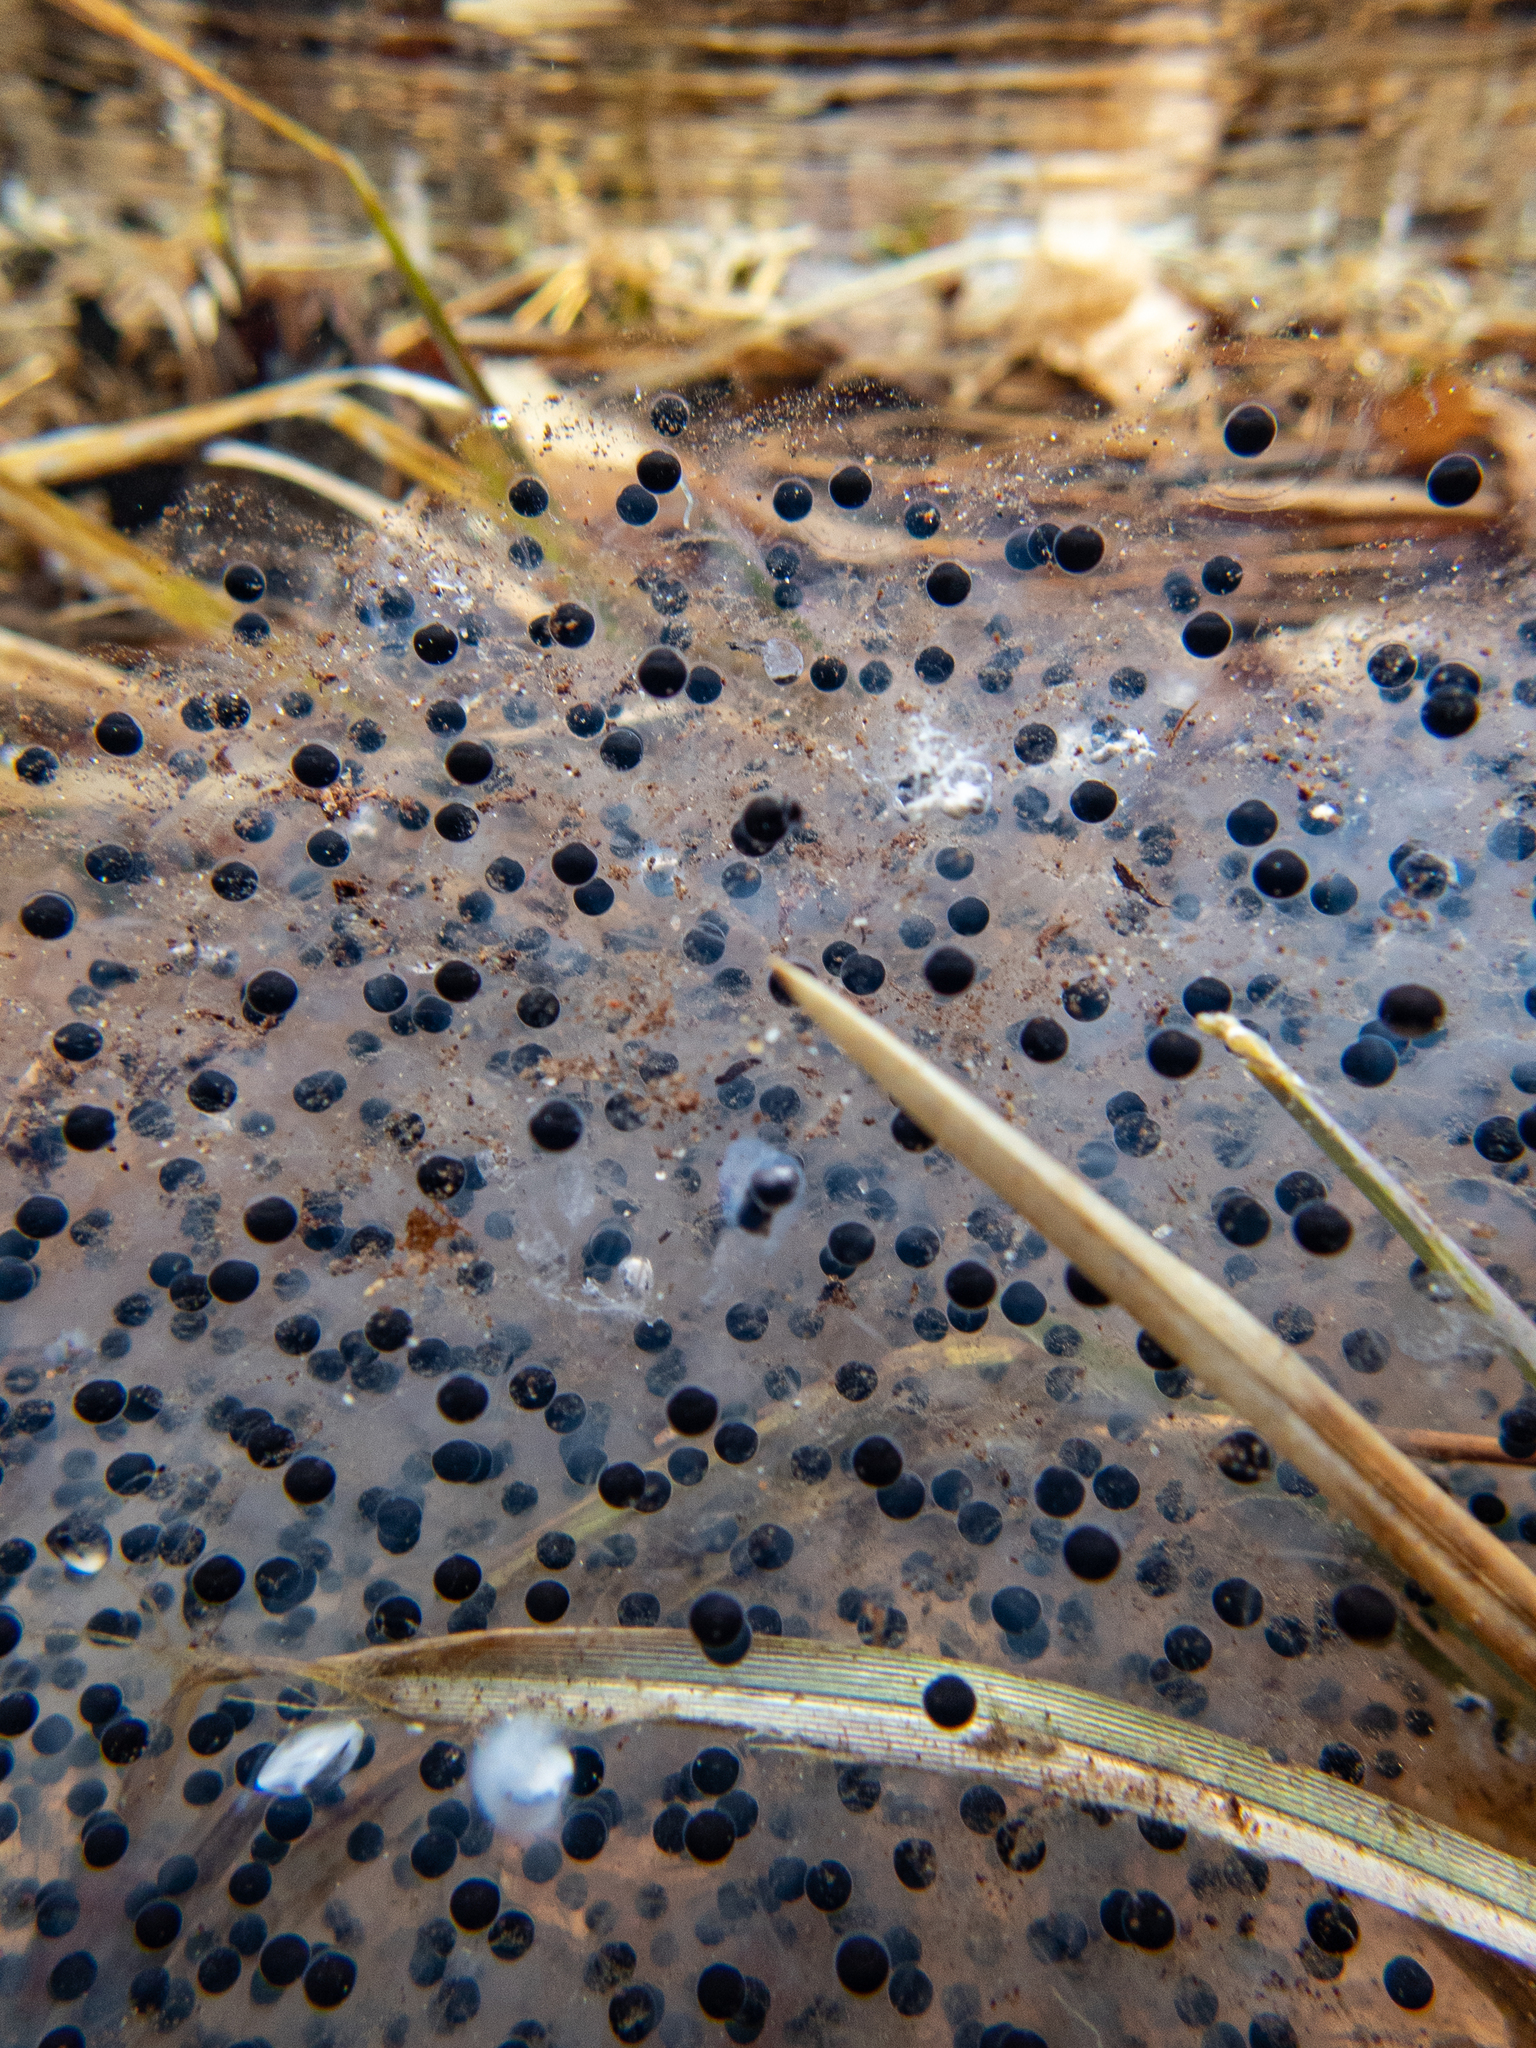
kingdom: Animalia
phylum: Chordata
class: Amphibia
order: Anura
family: Ranidae
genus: Lithobates
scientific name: Lithobates sylvaticus
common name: Wood frog
